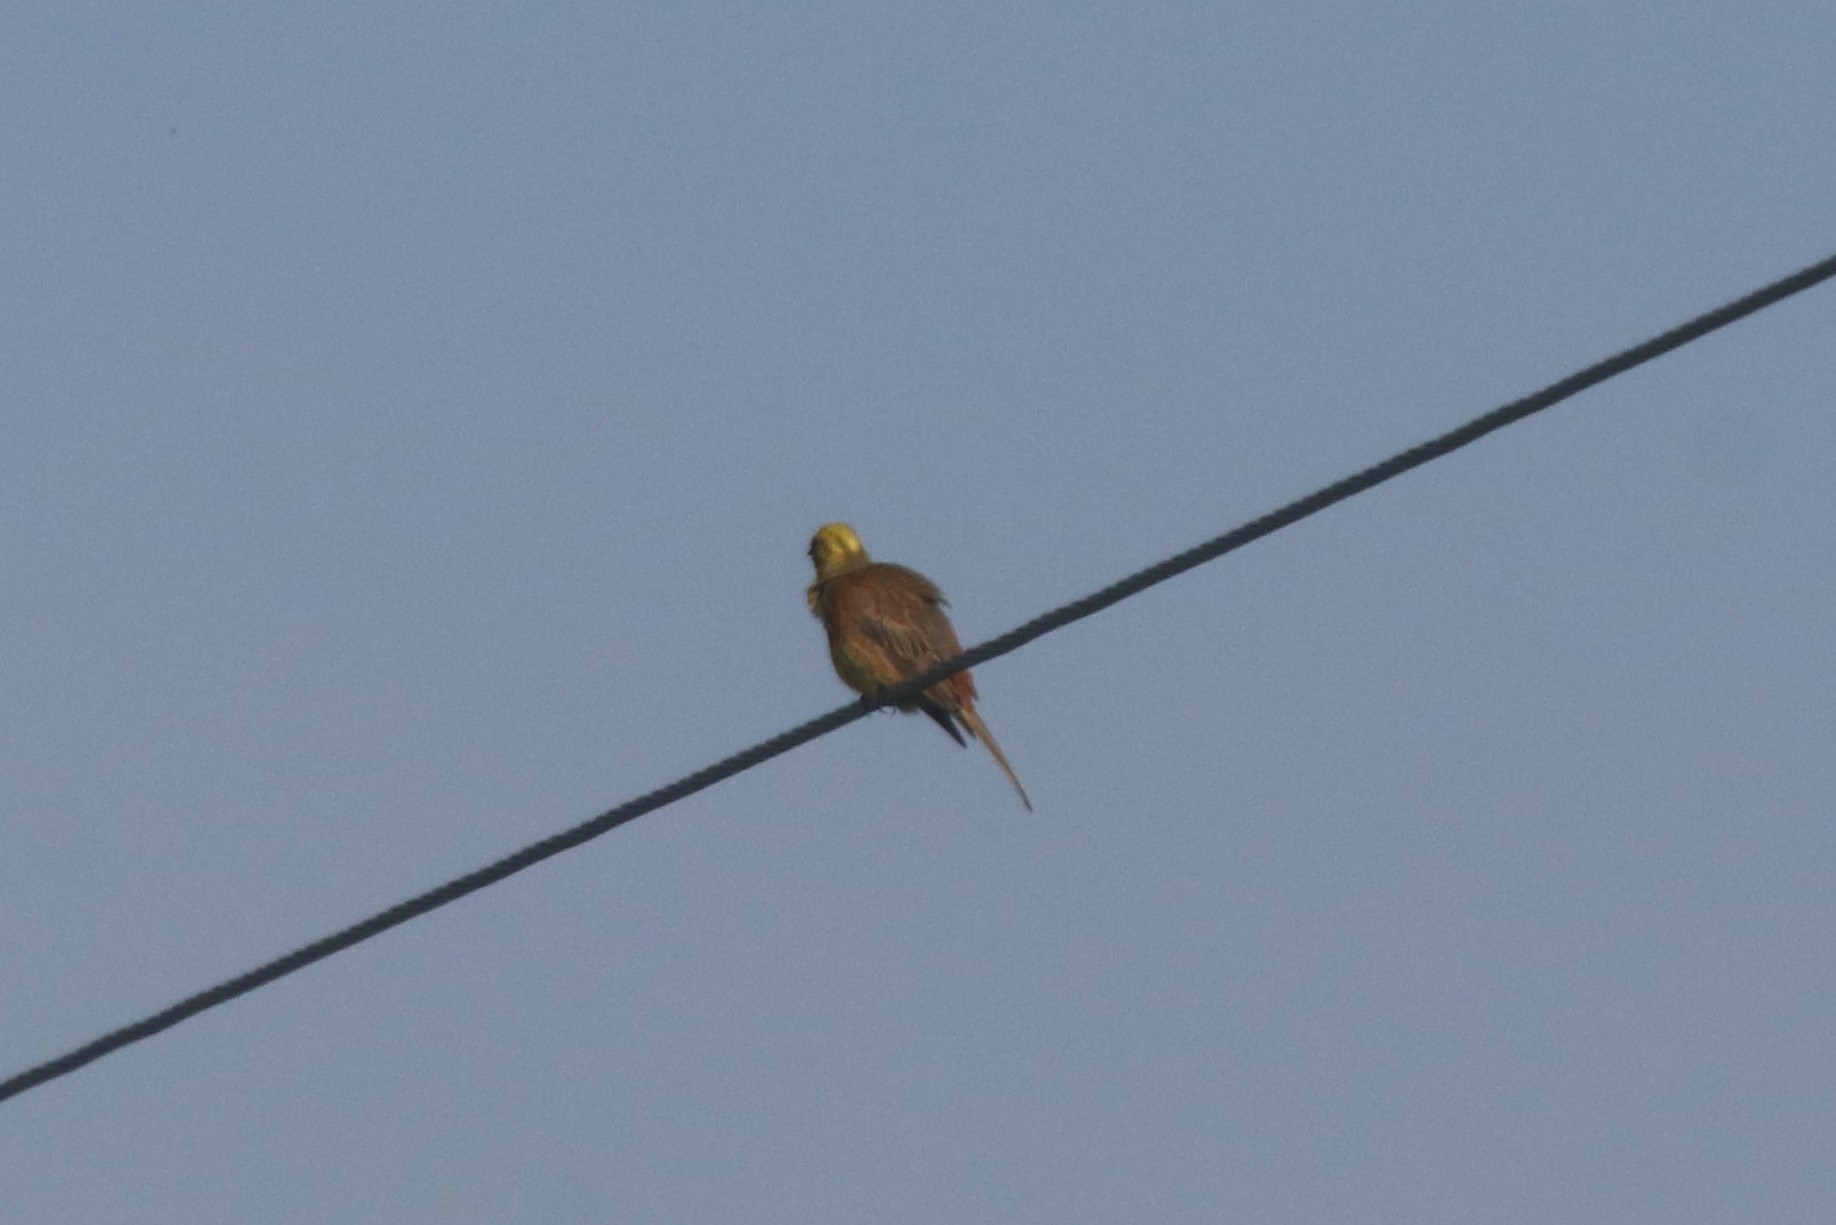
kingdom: Animalia
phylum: Chordata
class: Aves
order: Passeriformes
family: Emberizidae
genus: Emberiza
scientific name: Emberiza citrinella
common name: Yellowhammer
